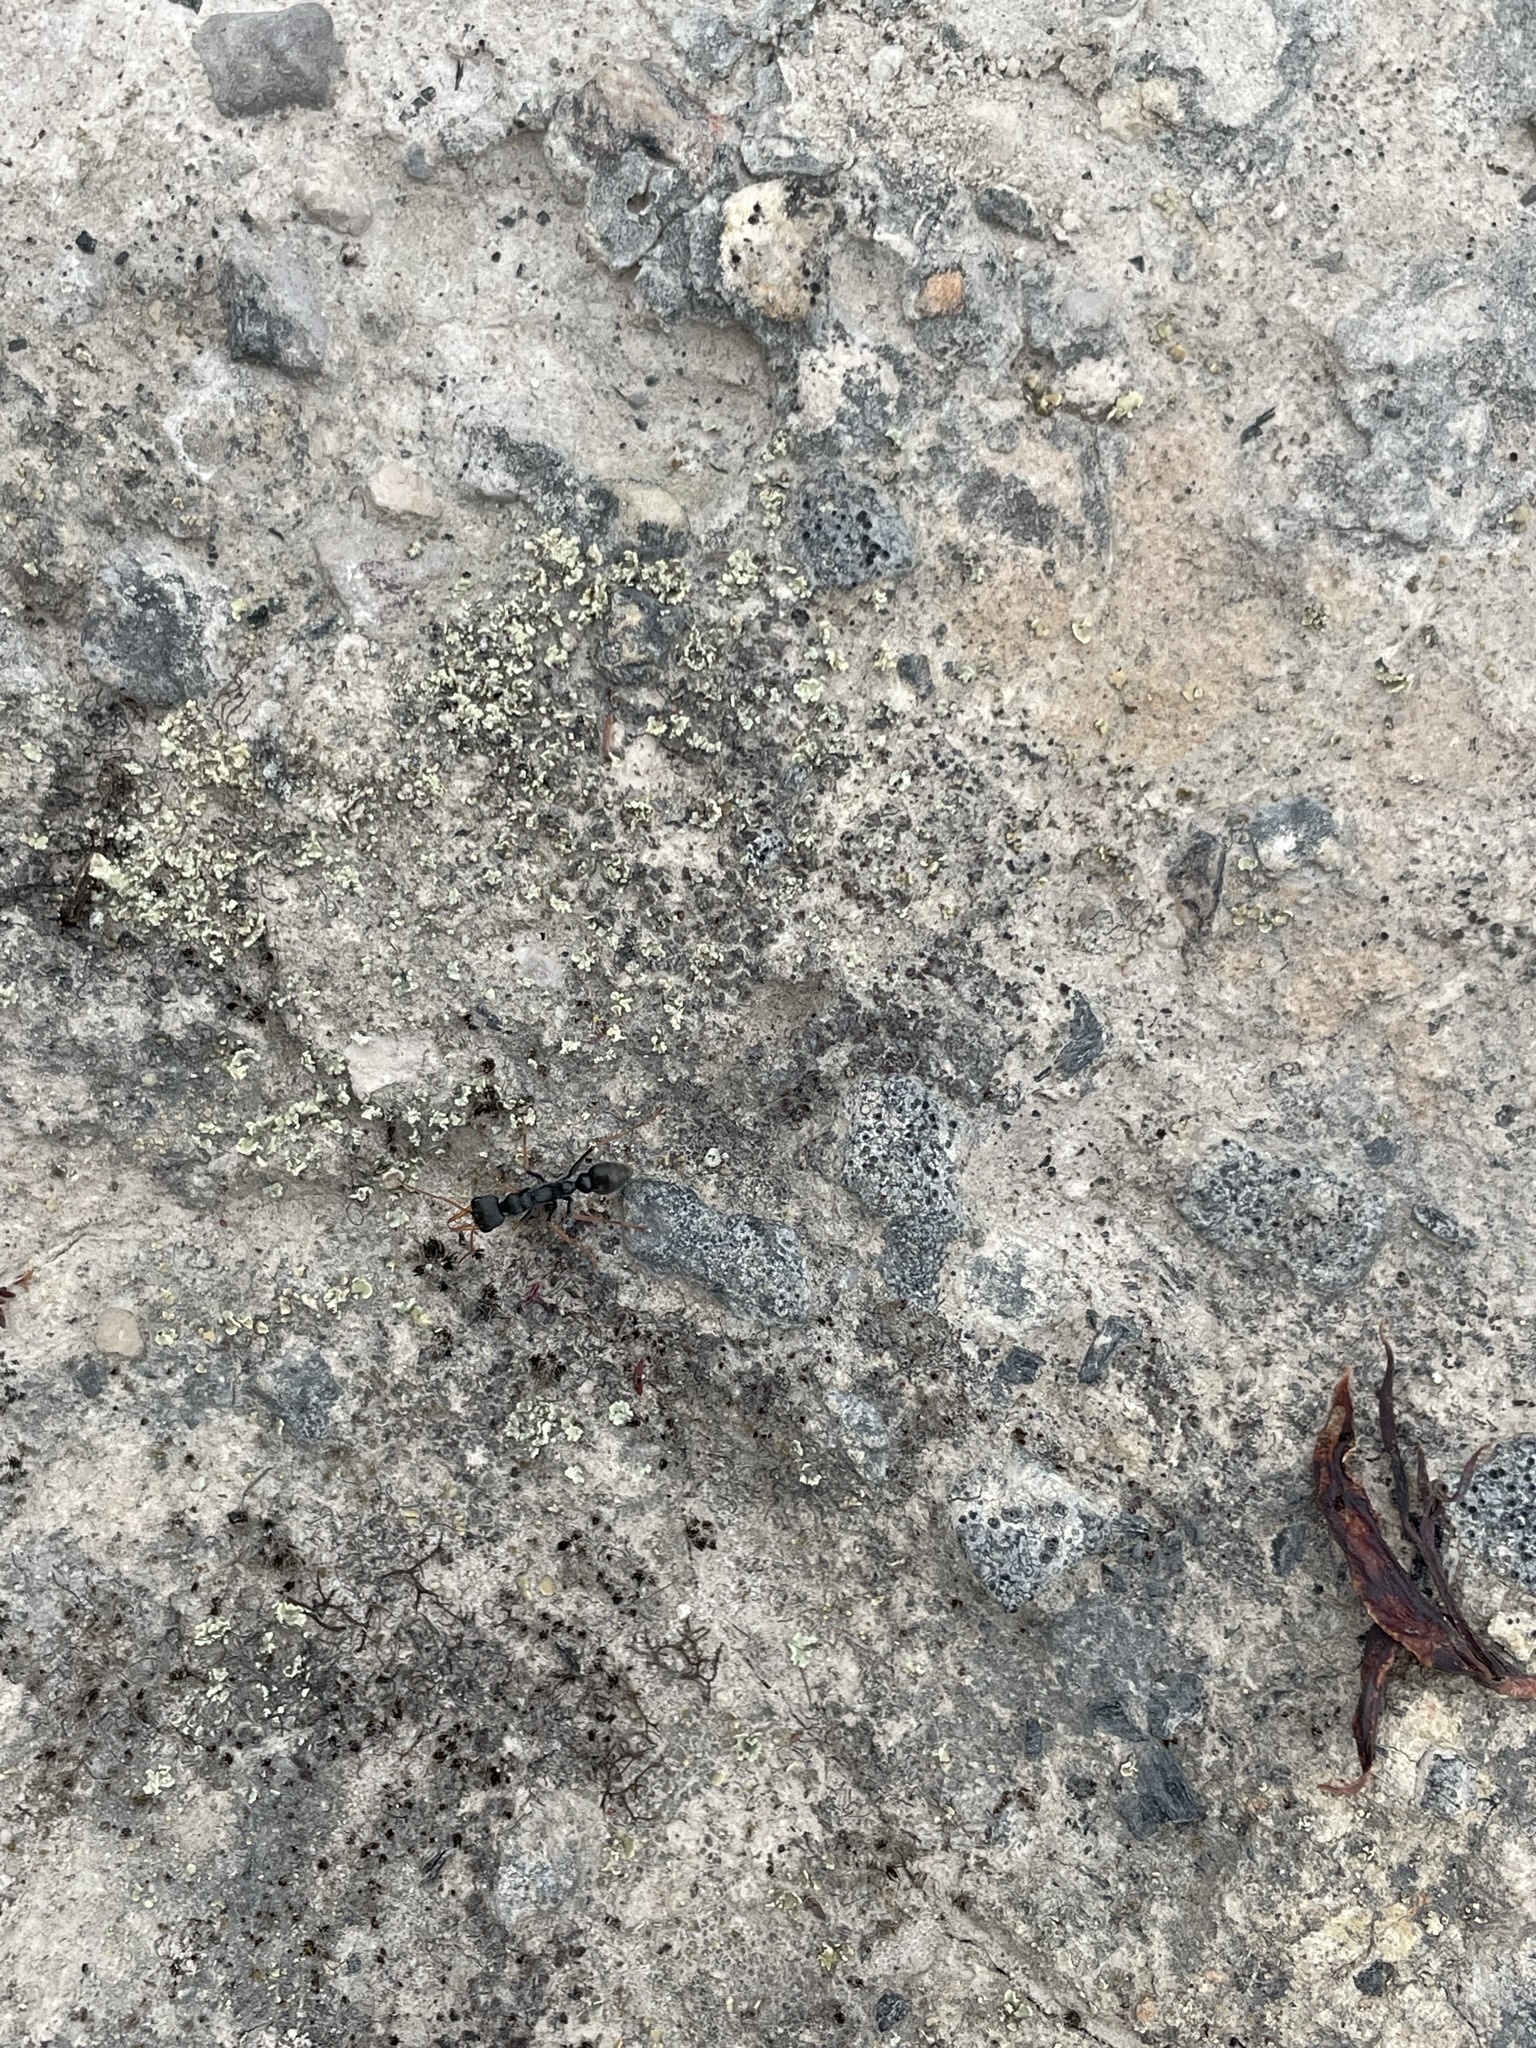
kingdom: Animalia
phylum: Arthropoda
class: Insecta
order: Hymenoptera
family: Formicidae
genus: Myrmecia
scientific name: Myrmecia pilosula
